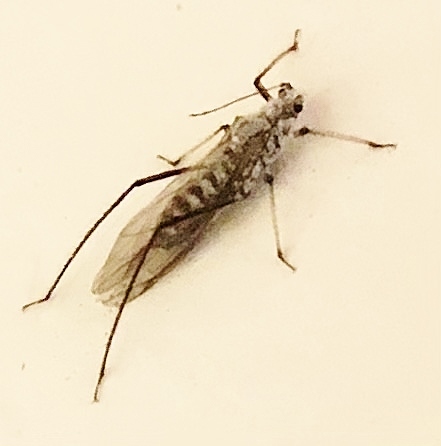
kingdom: Animalia
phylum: Arthropoda
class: Insecta
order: Hemiptera
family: Aphididae
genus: Eulachnus
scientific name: Eulachnus rileyi
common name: Active gray pine needle aphid
